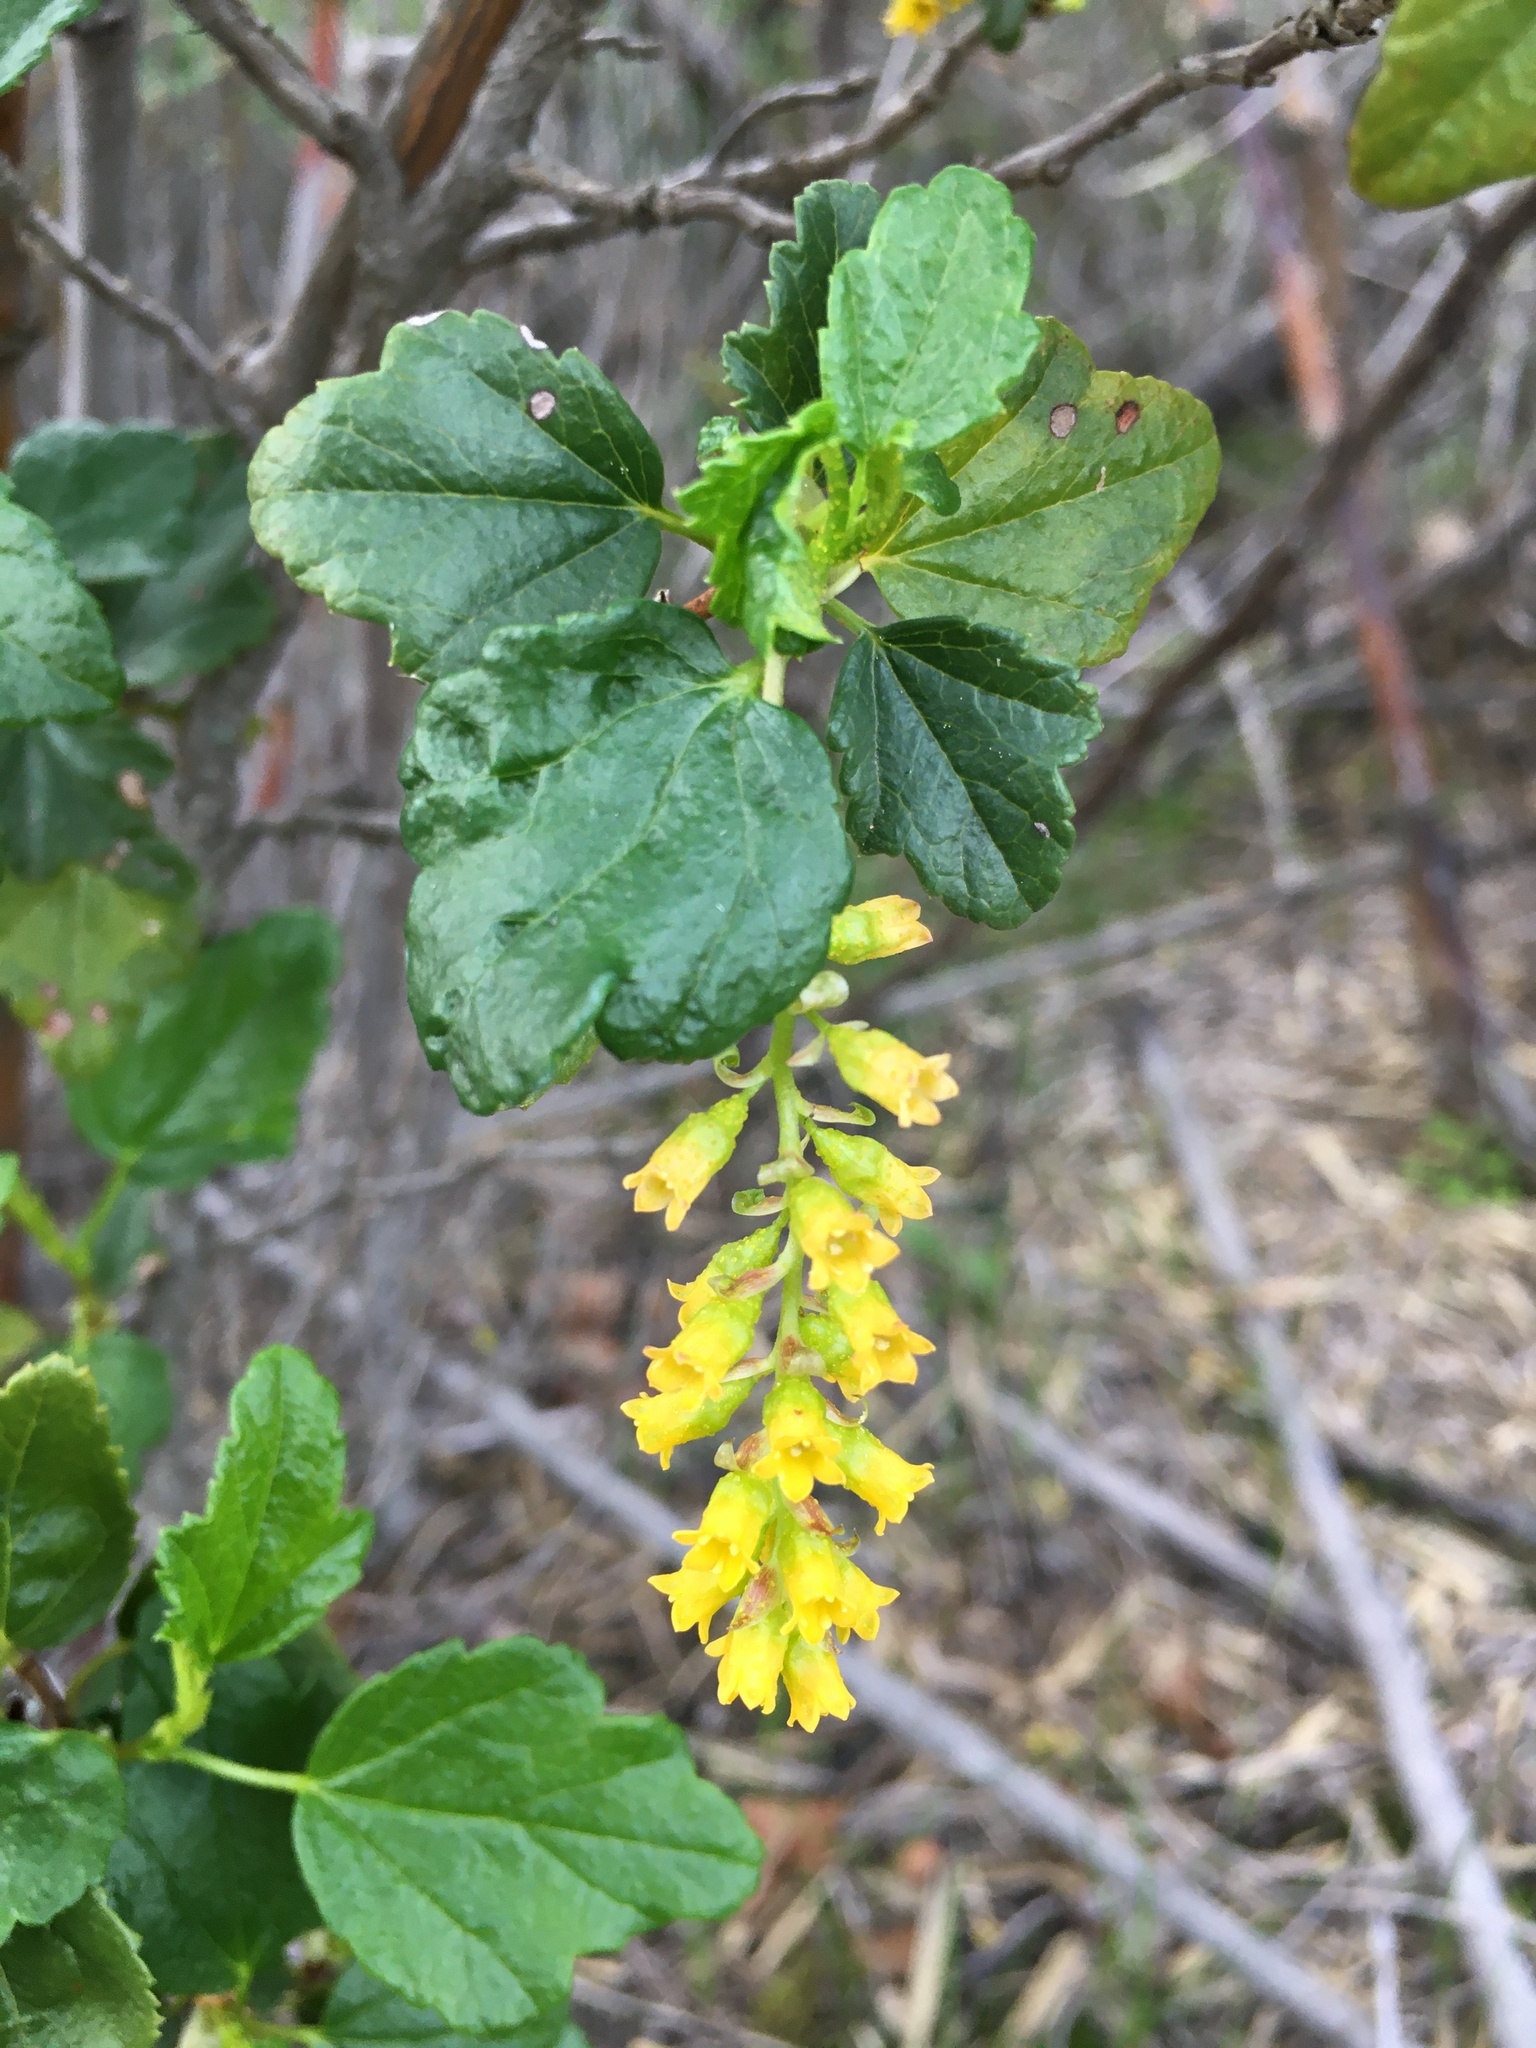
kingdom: Plantae
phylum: Tracheophyta
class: Magnoliopsida
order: Saxifragales
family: Grossulariaceae
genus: Ribes
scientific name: Ribes punctatum
